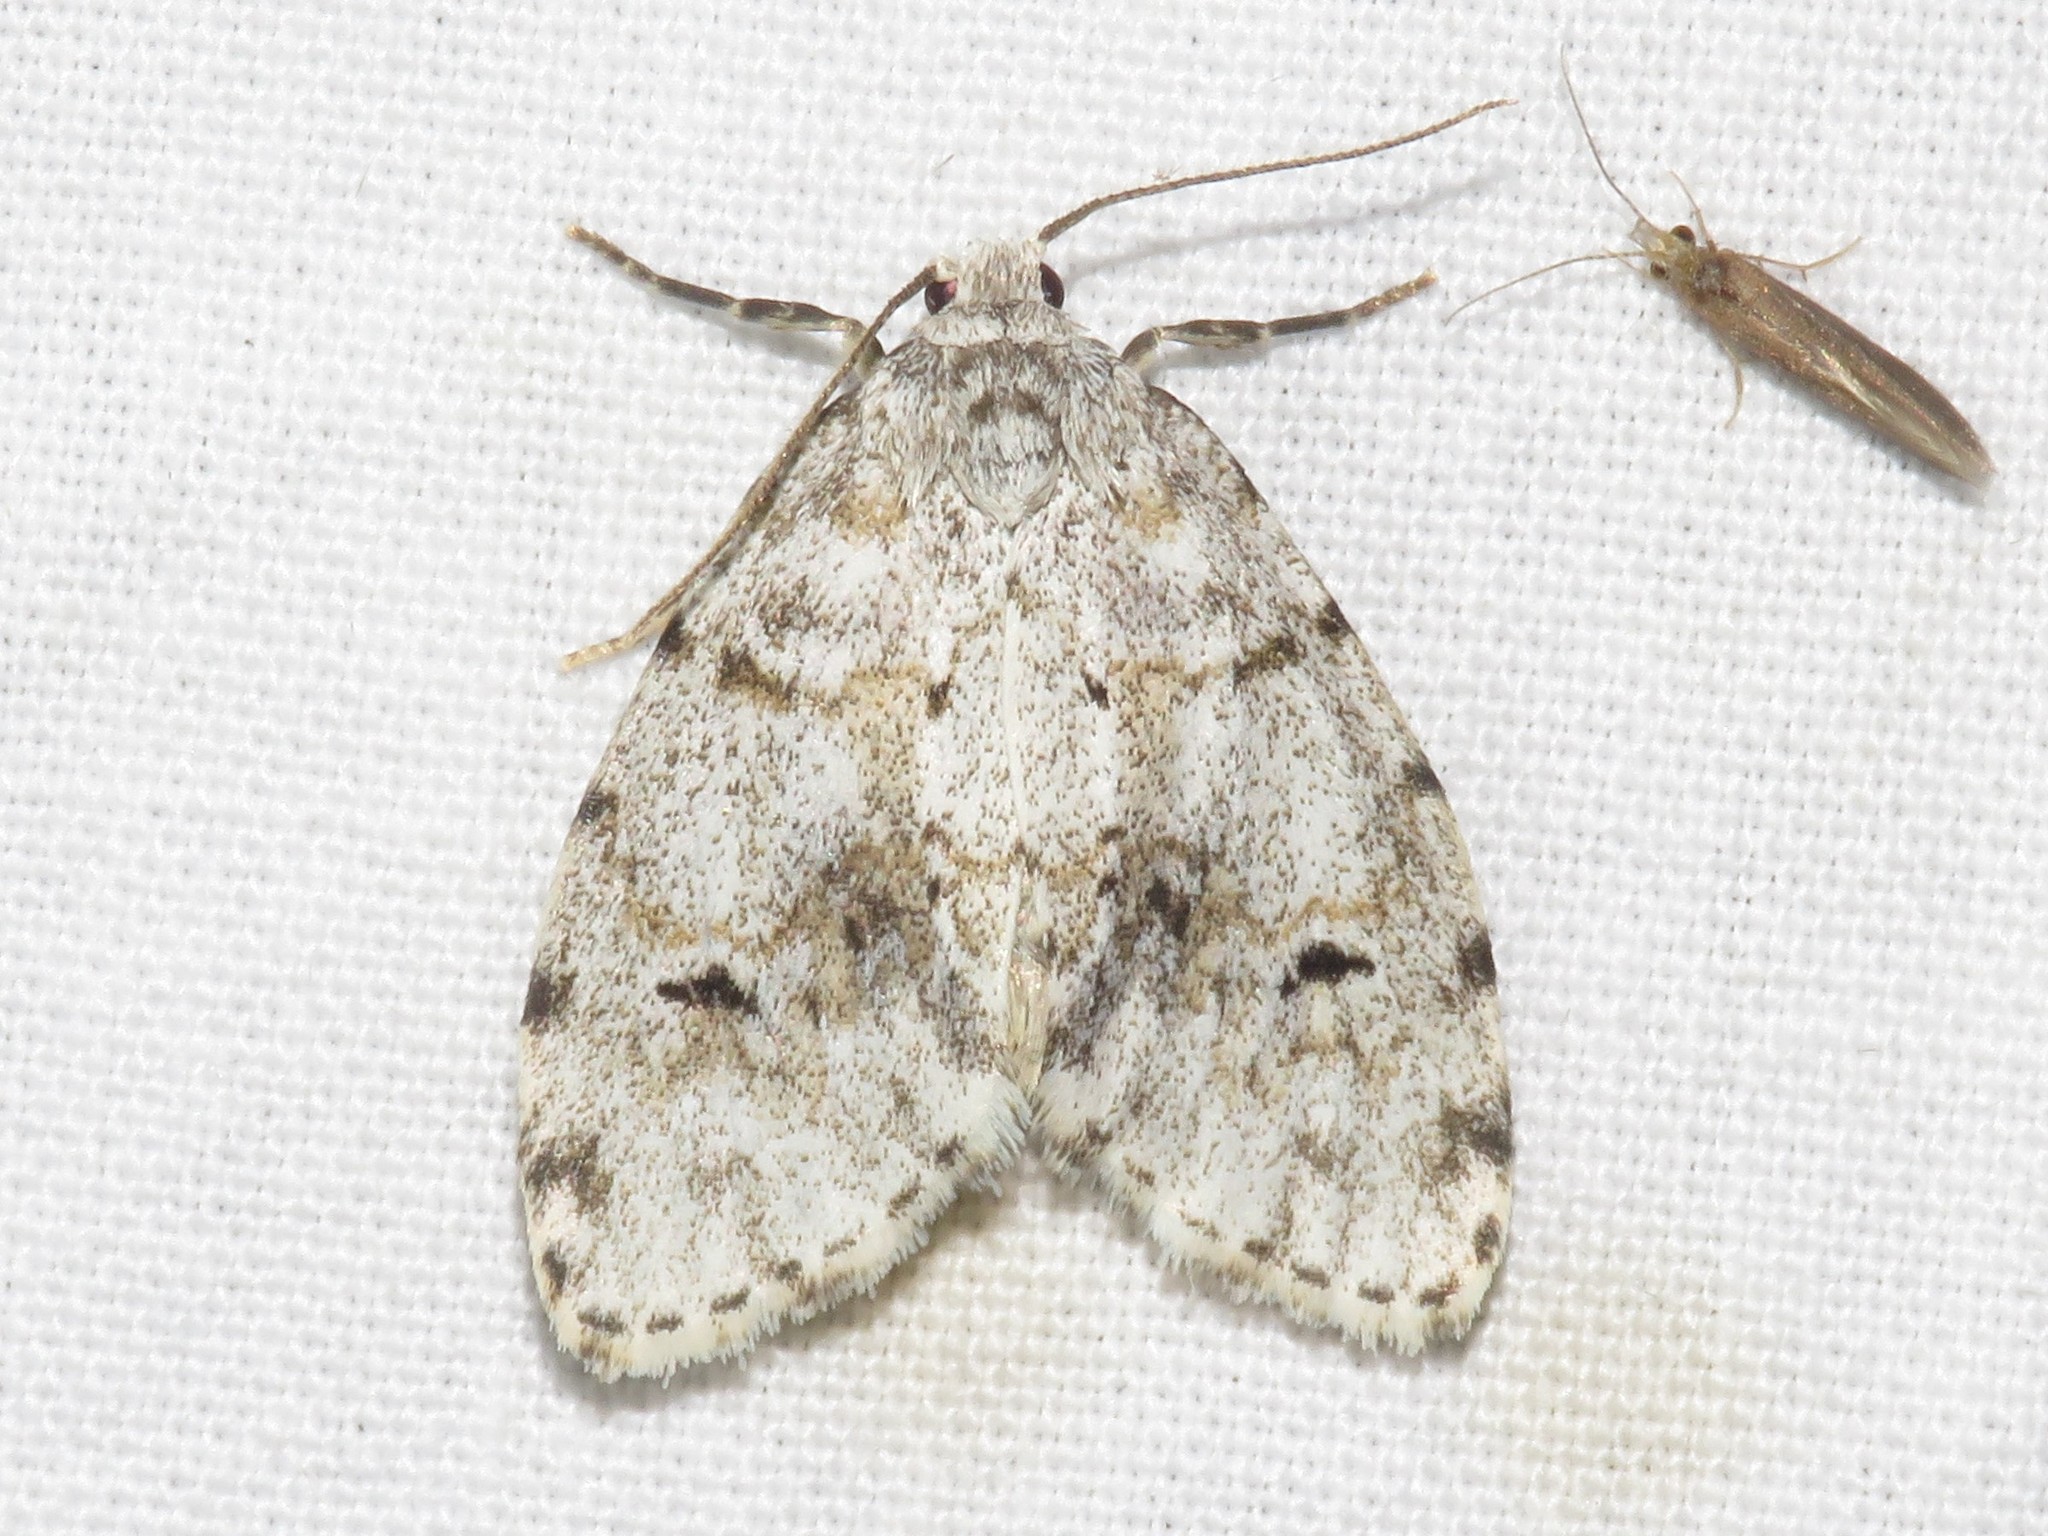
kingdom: Animalia
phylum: Arthropoda
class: Insecta
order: Lepidoptera
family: Erebidae
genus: Clemensia
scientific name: Clemensia umbrata
